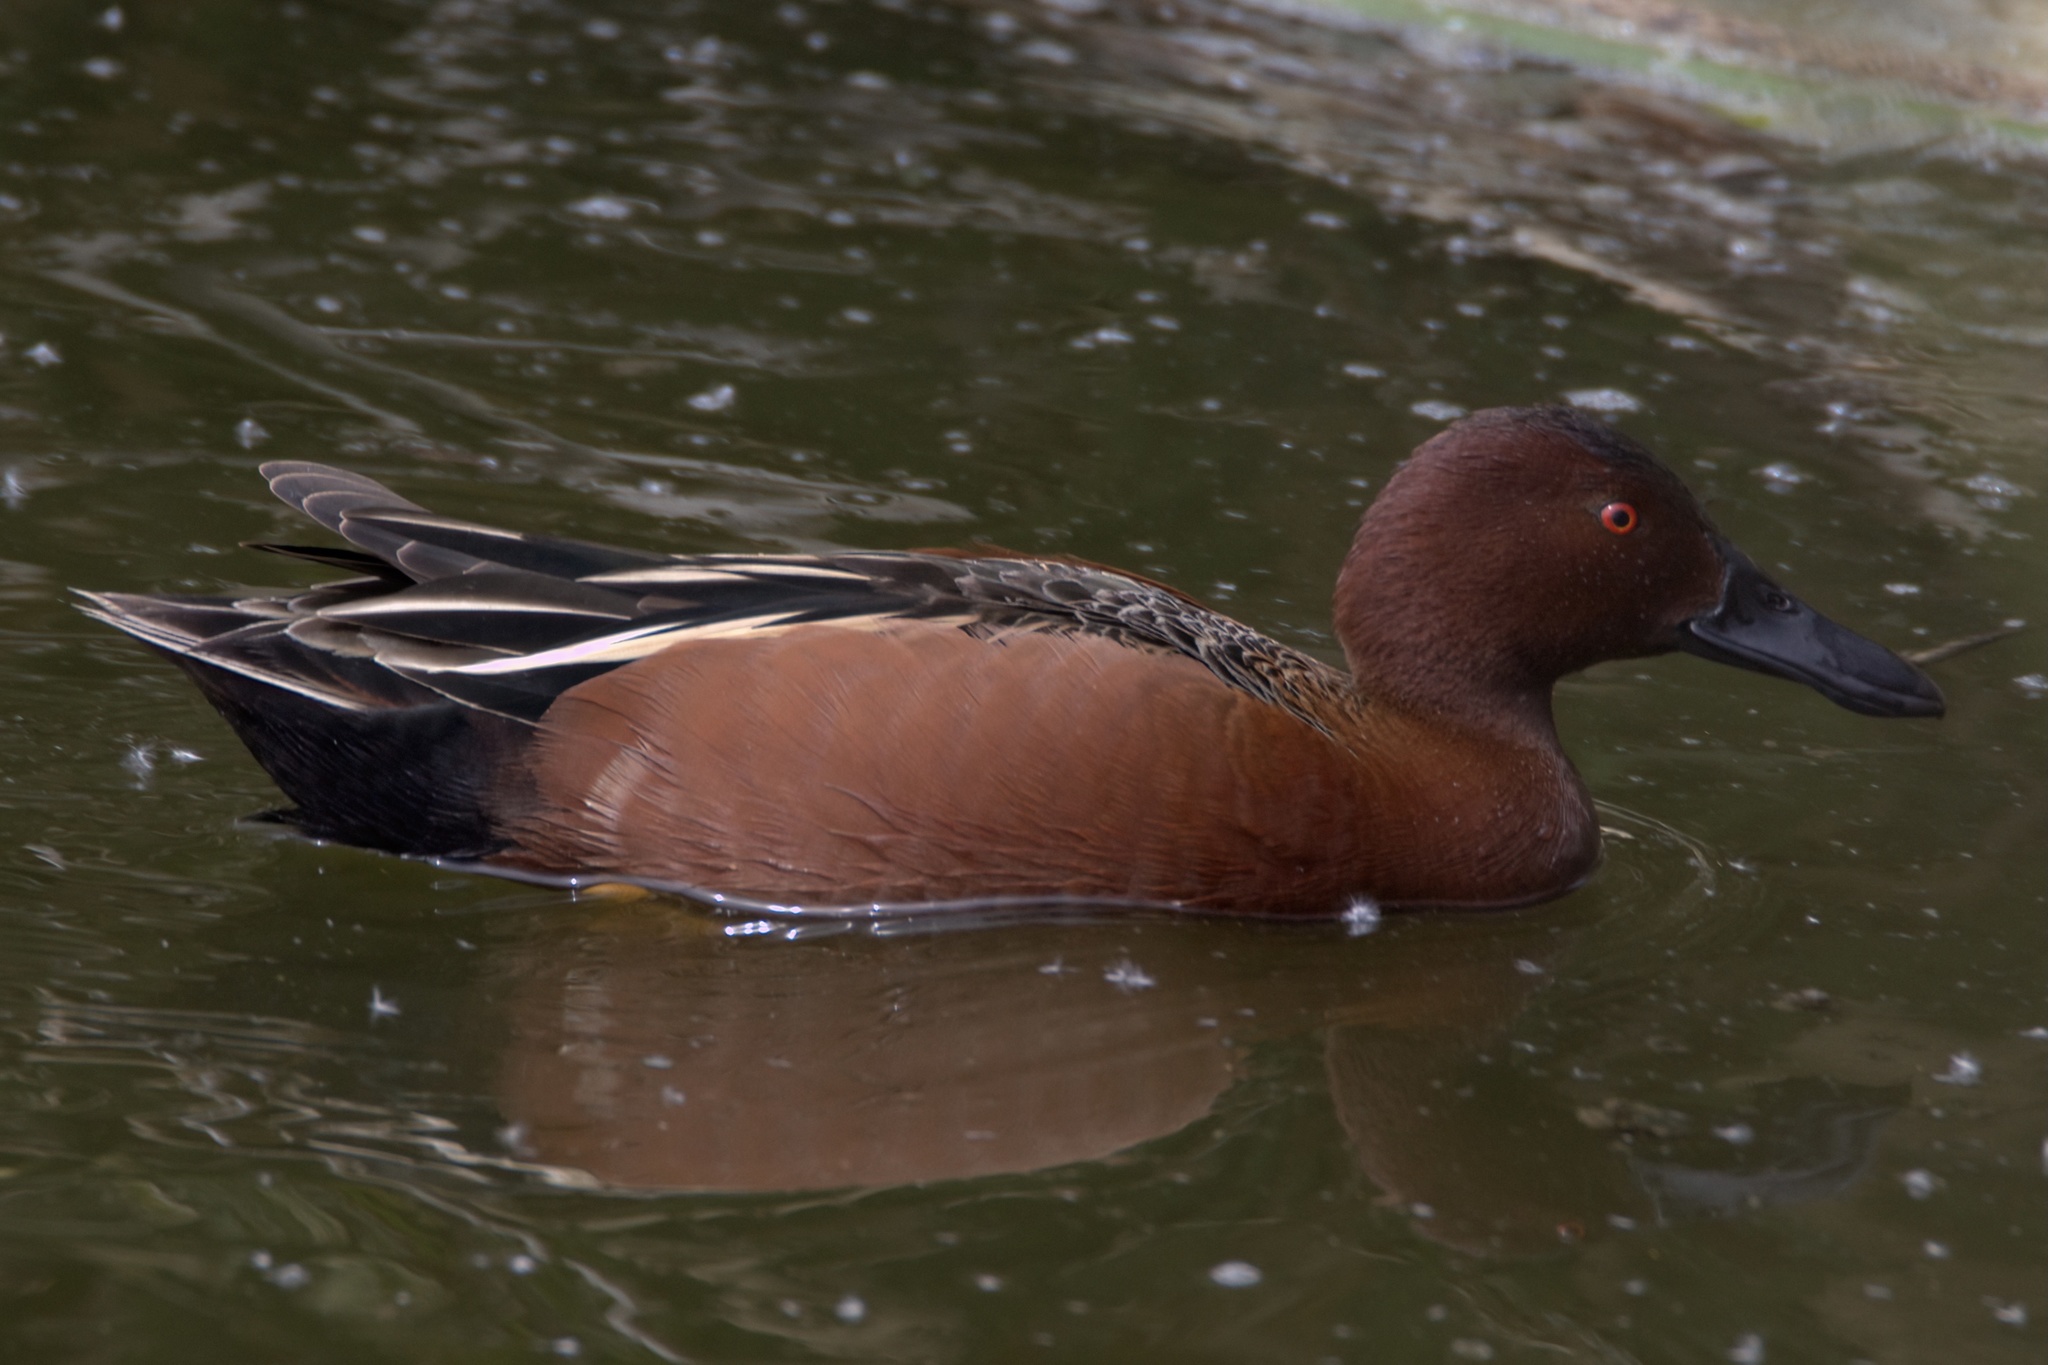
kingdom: Animalia
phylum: Chordata
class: Aves
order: Anseriformes
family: Anatidae
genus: Spatula
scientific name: Spatula cyanoptera
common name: Cinnamon teal
